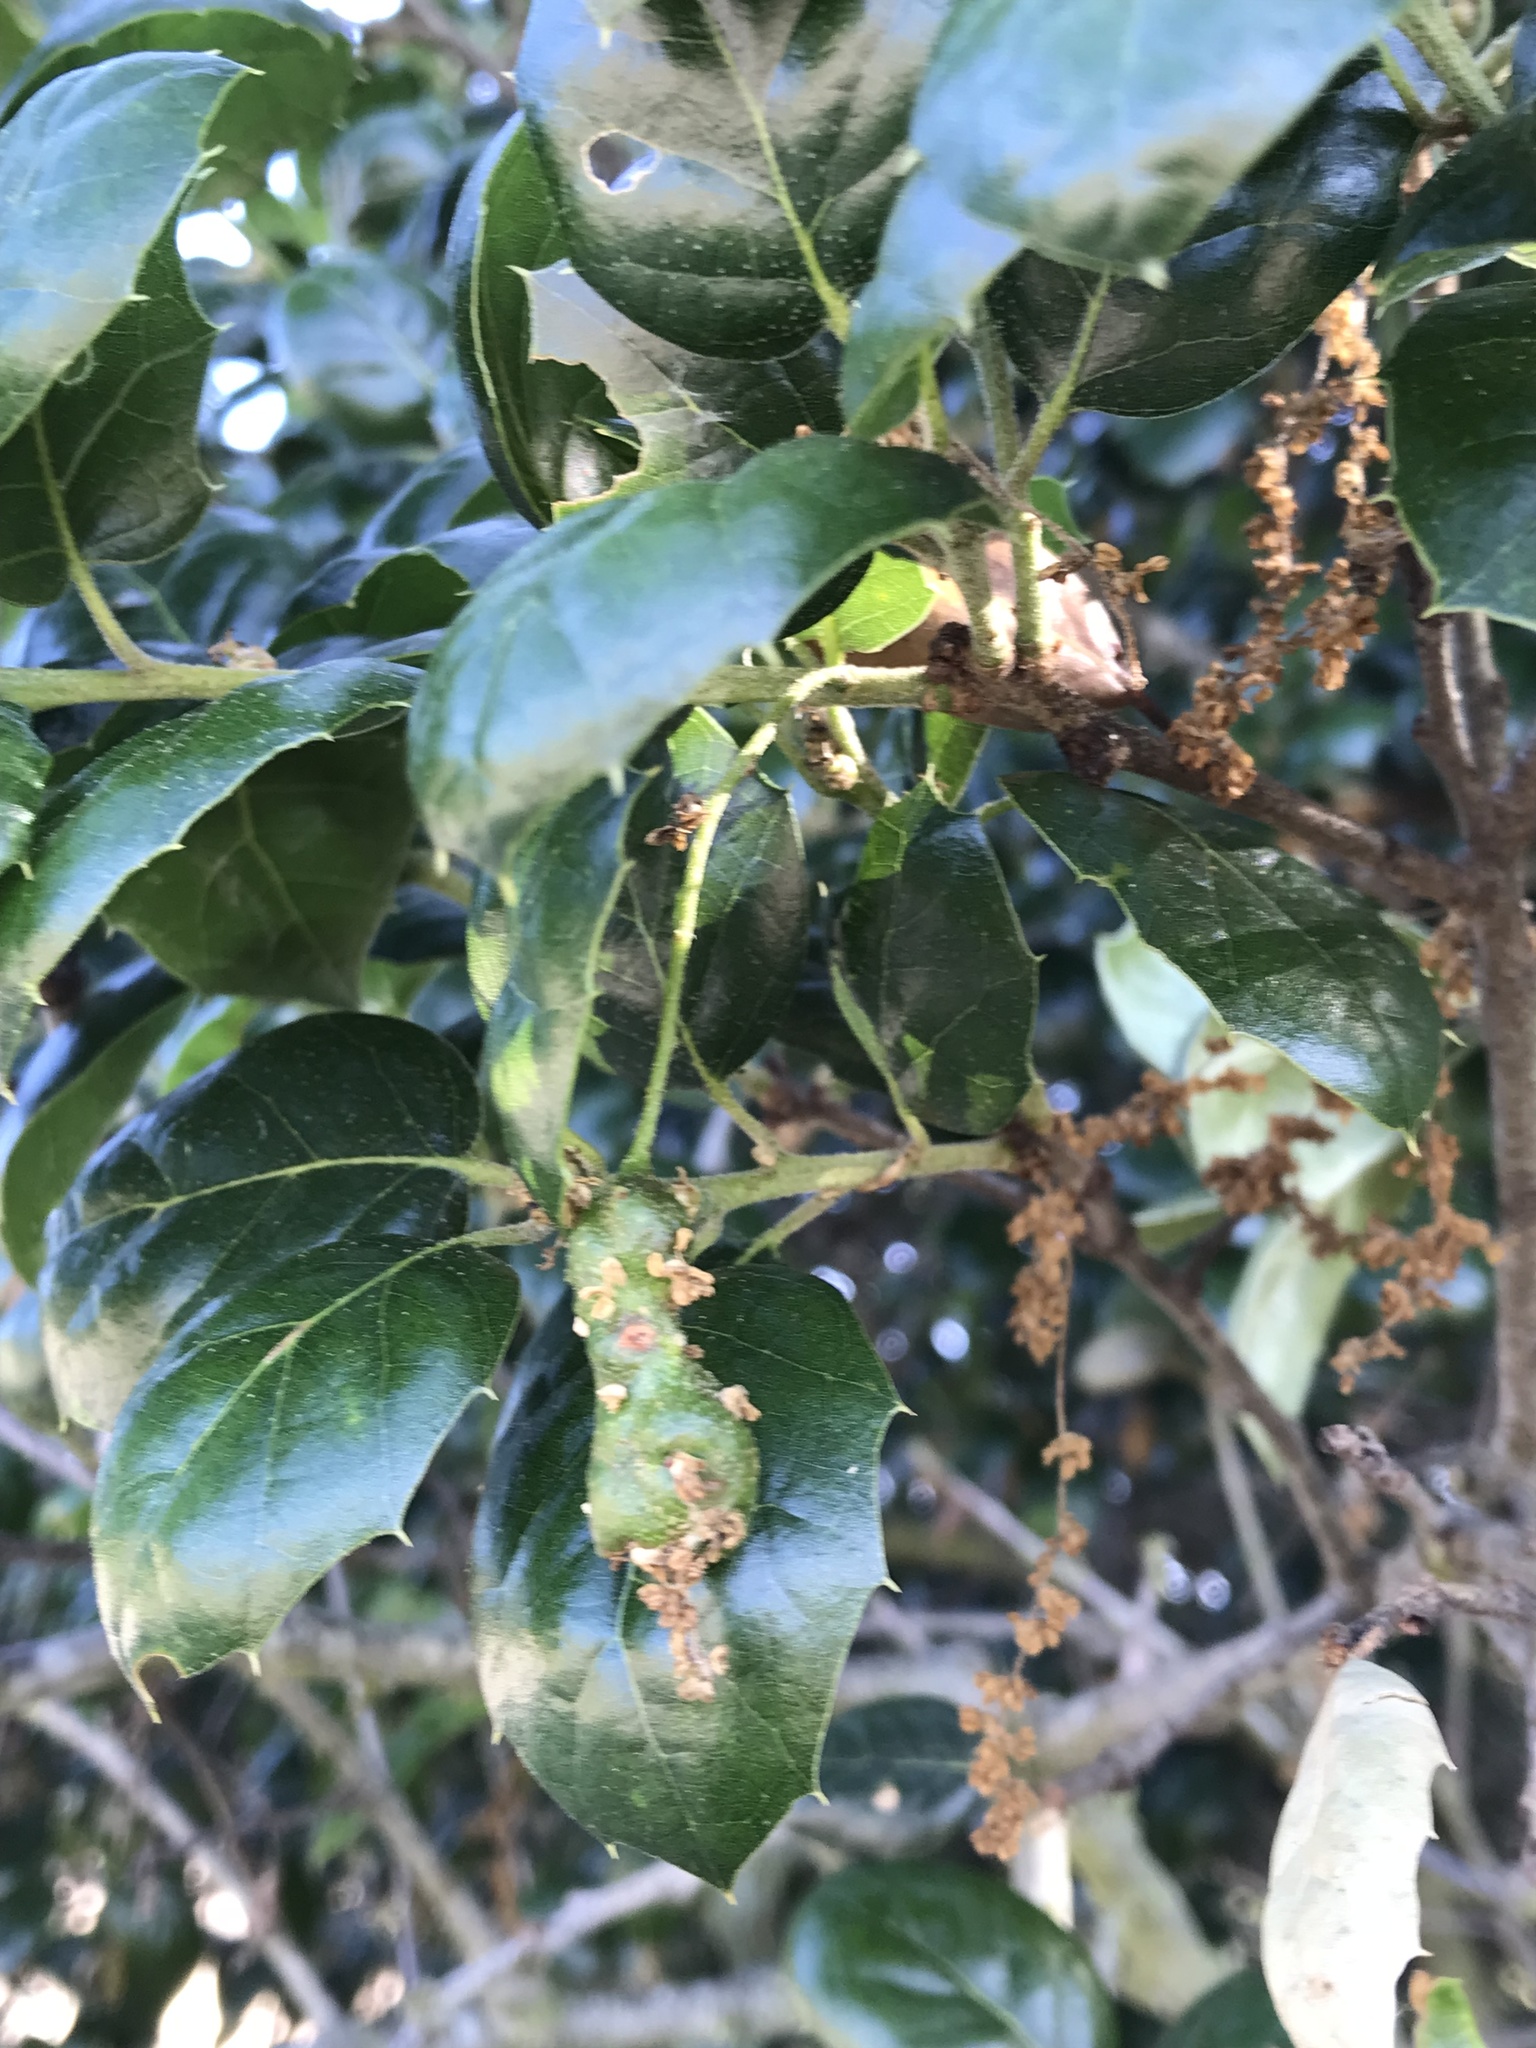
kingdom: Animalia
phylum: Arthropoda
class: Insecta
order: Hymenoptera
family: Cynipidae
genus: Callirhytis
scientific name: Callirhytis
